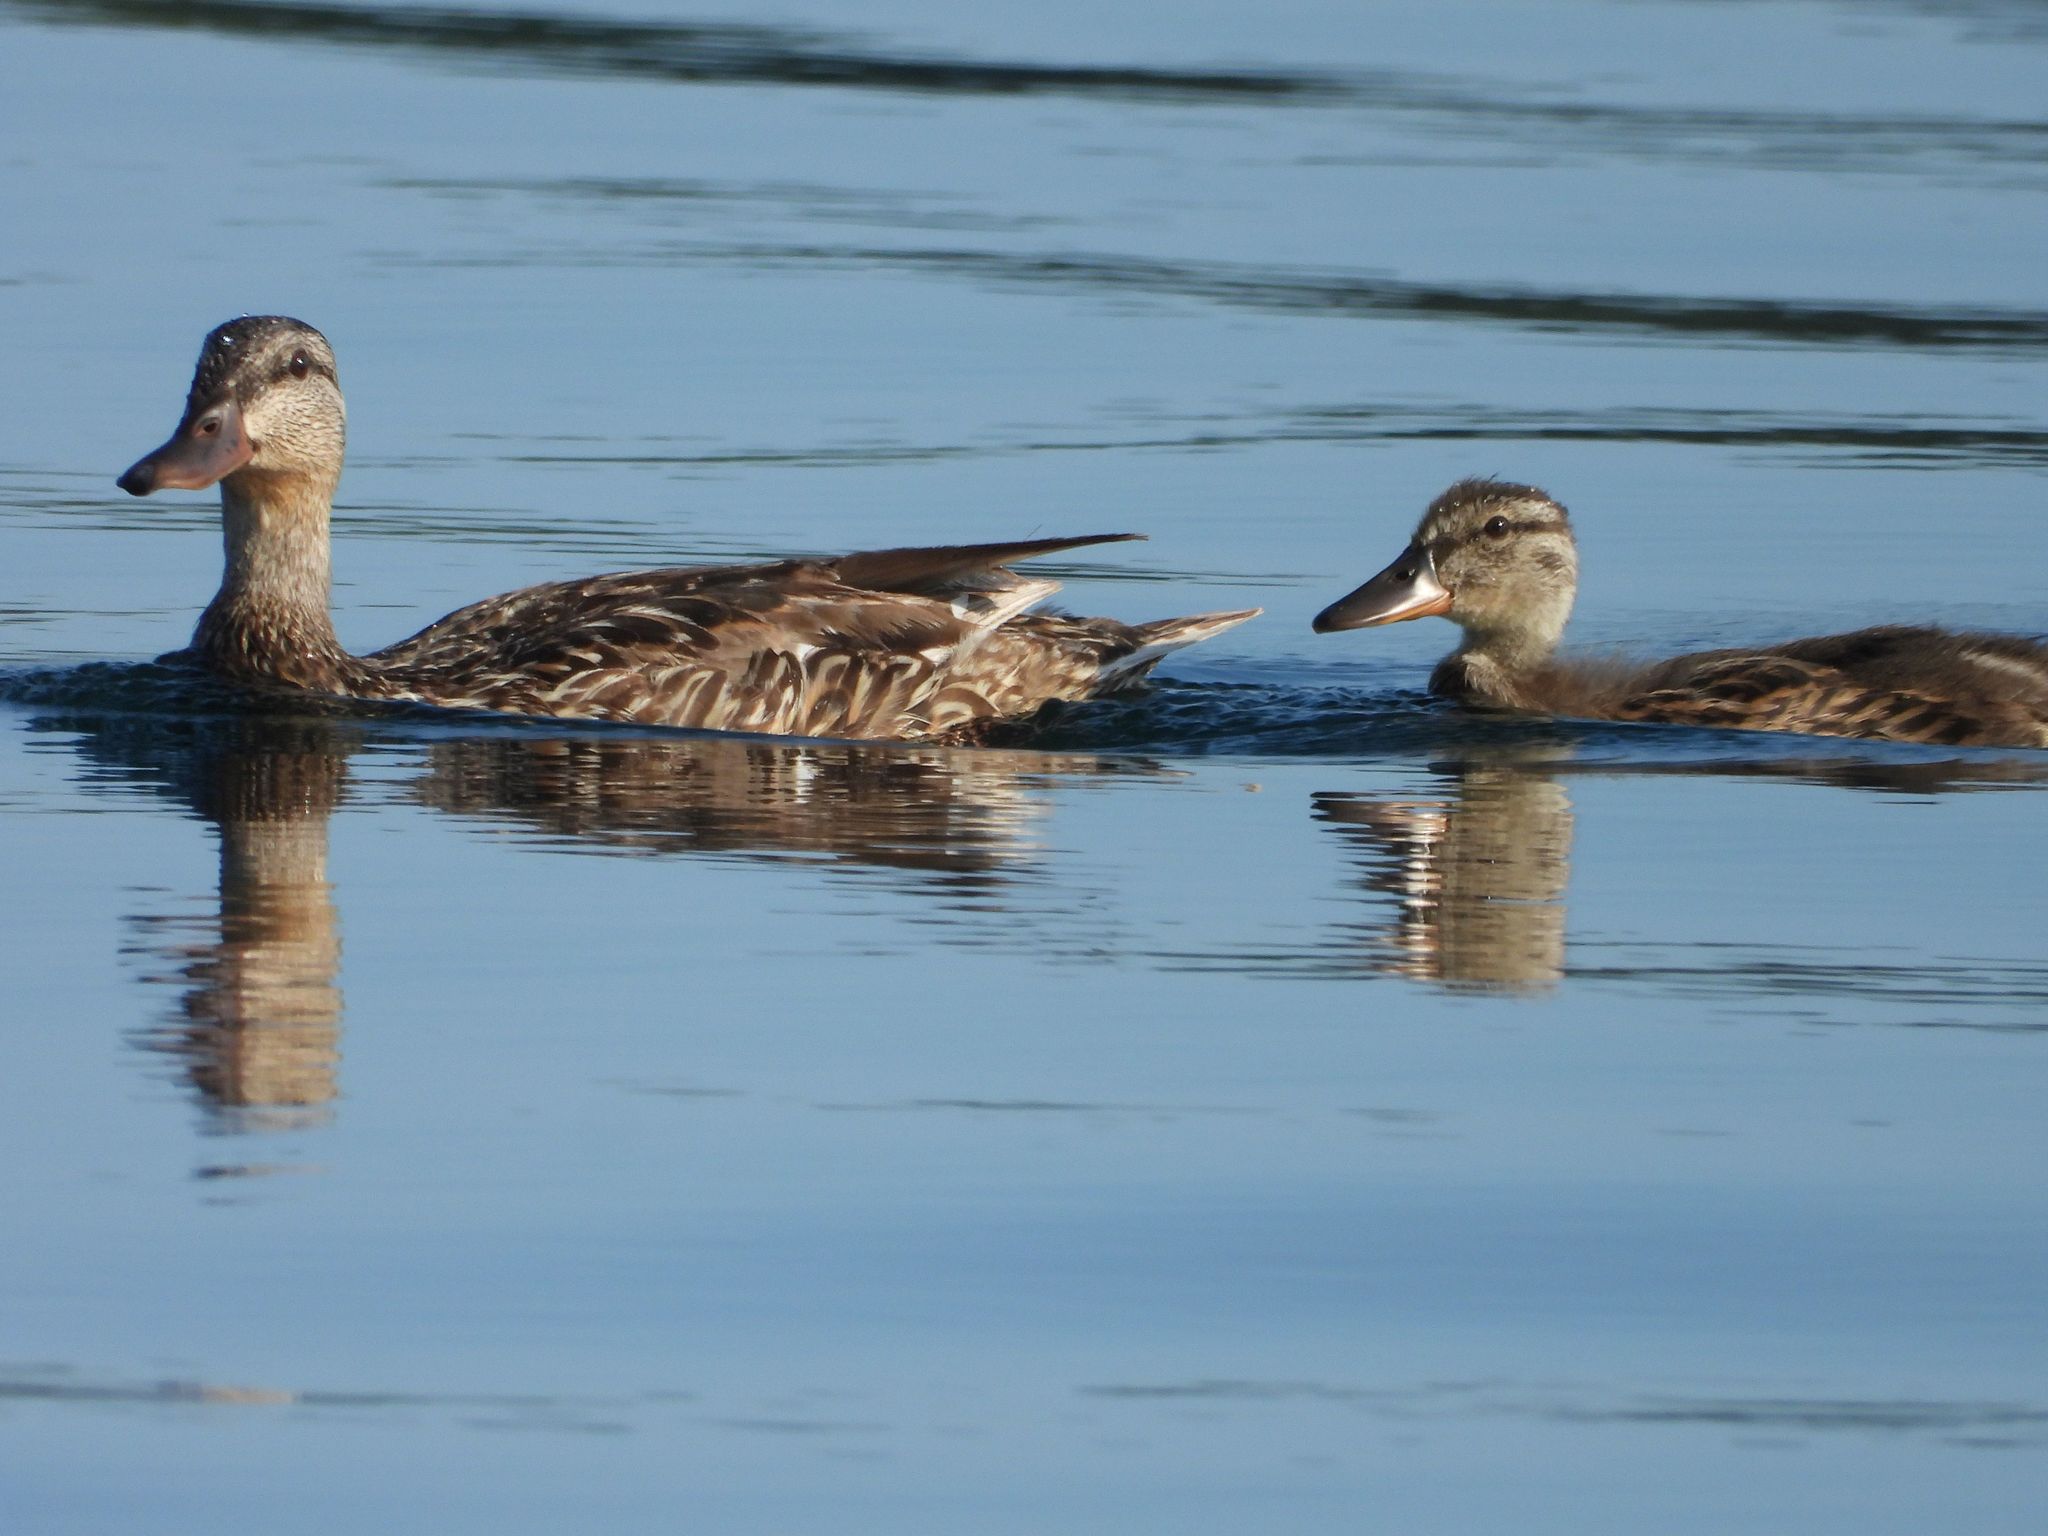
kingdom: Animalia
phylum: Chordata
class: Aves
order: Anseriformes
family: Anatidae
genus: Anas
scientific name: Anas platyrhynchos
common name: Mallard
